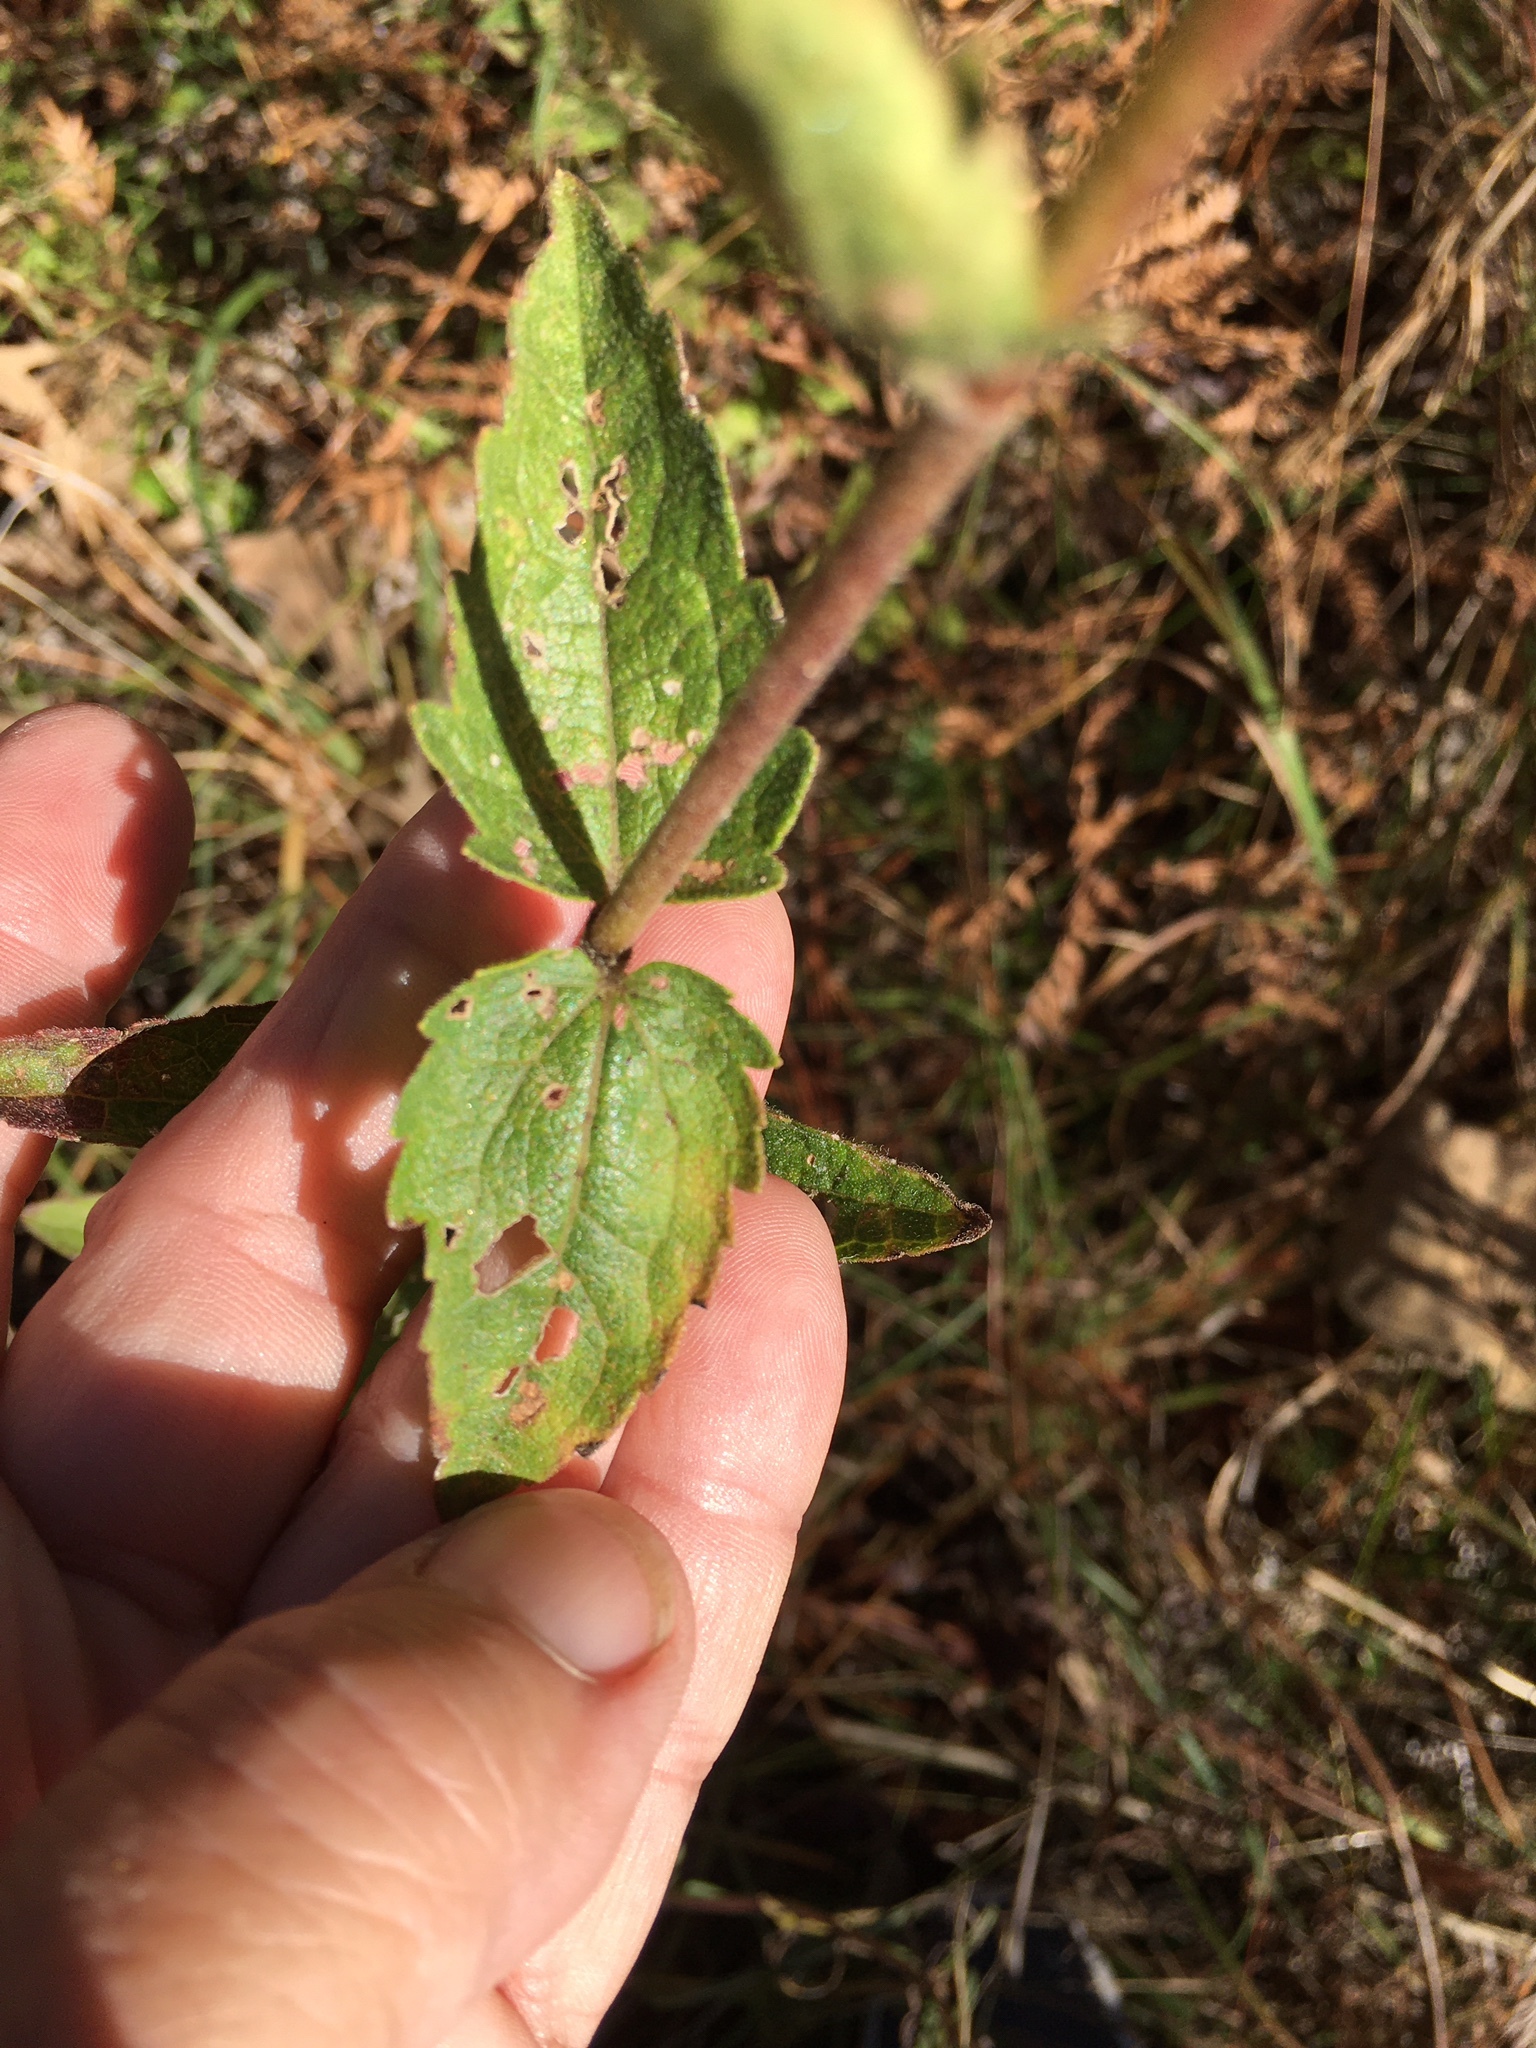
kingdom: Plantae
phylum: Tracheophyta
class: Magnoliopsida
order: Asterales
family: Asteraceae
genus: Eupatorium
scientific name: Eupatorium pilosum
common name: Rough boneset
